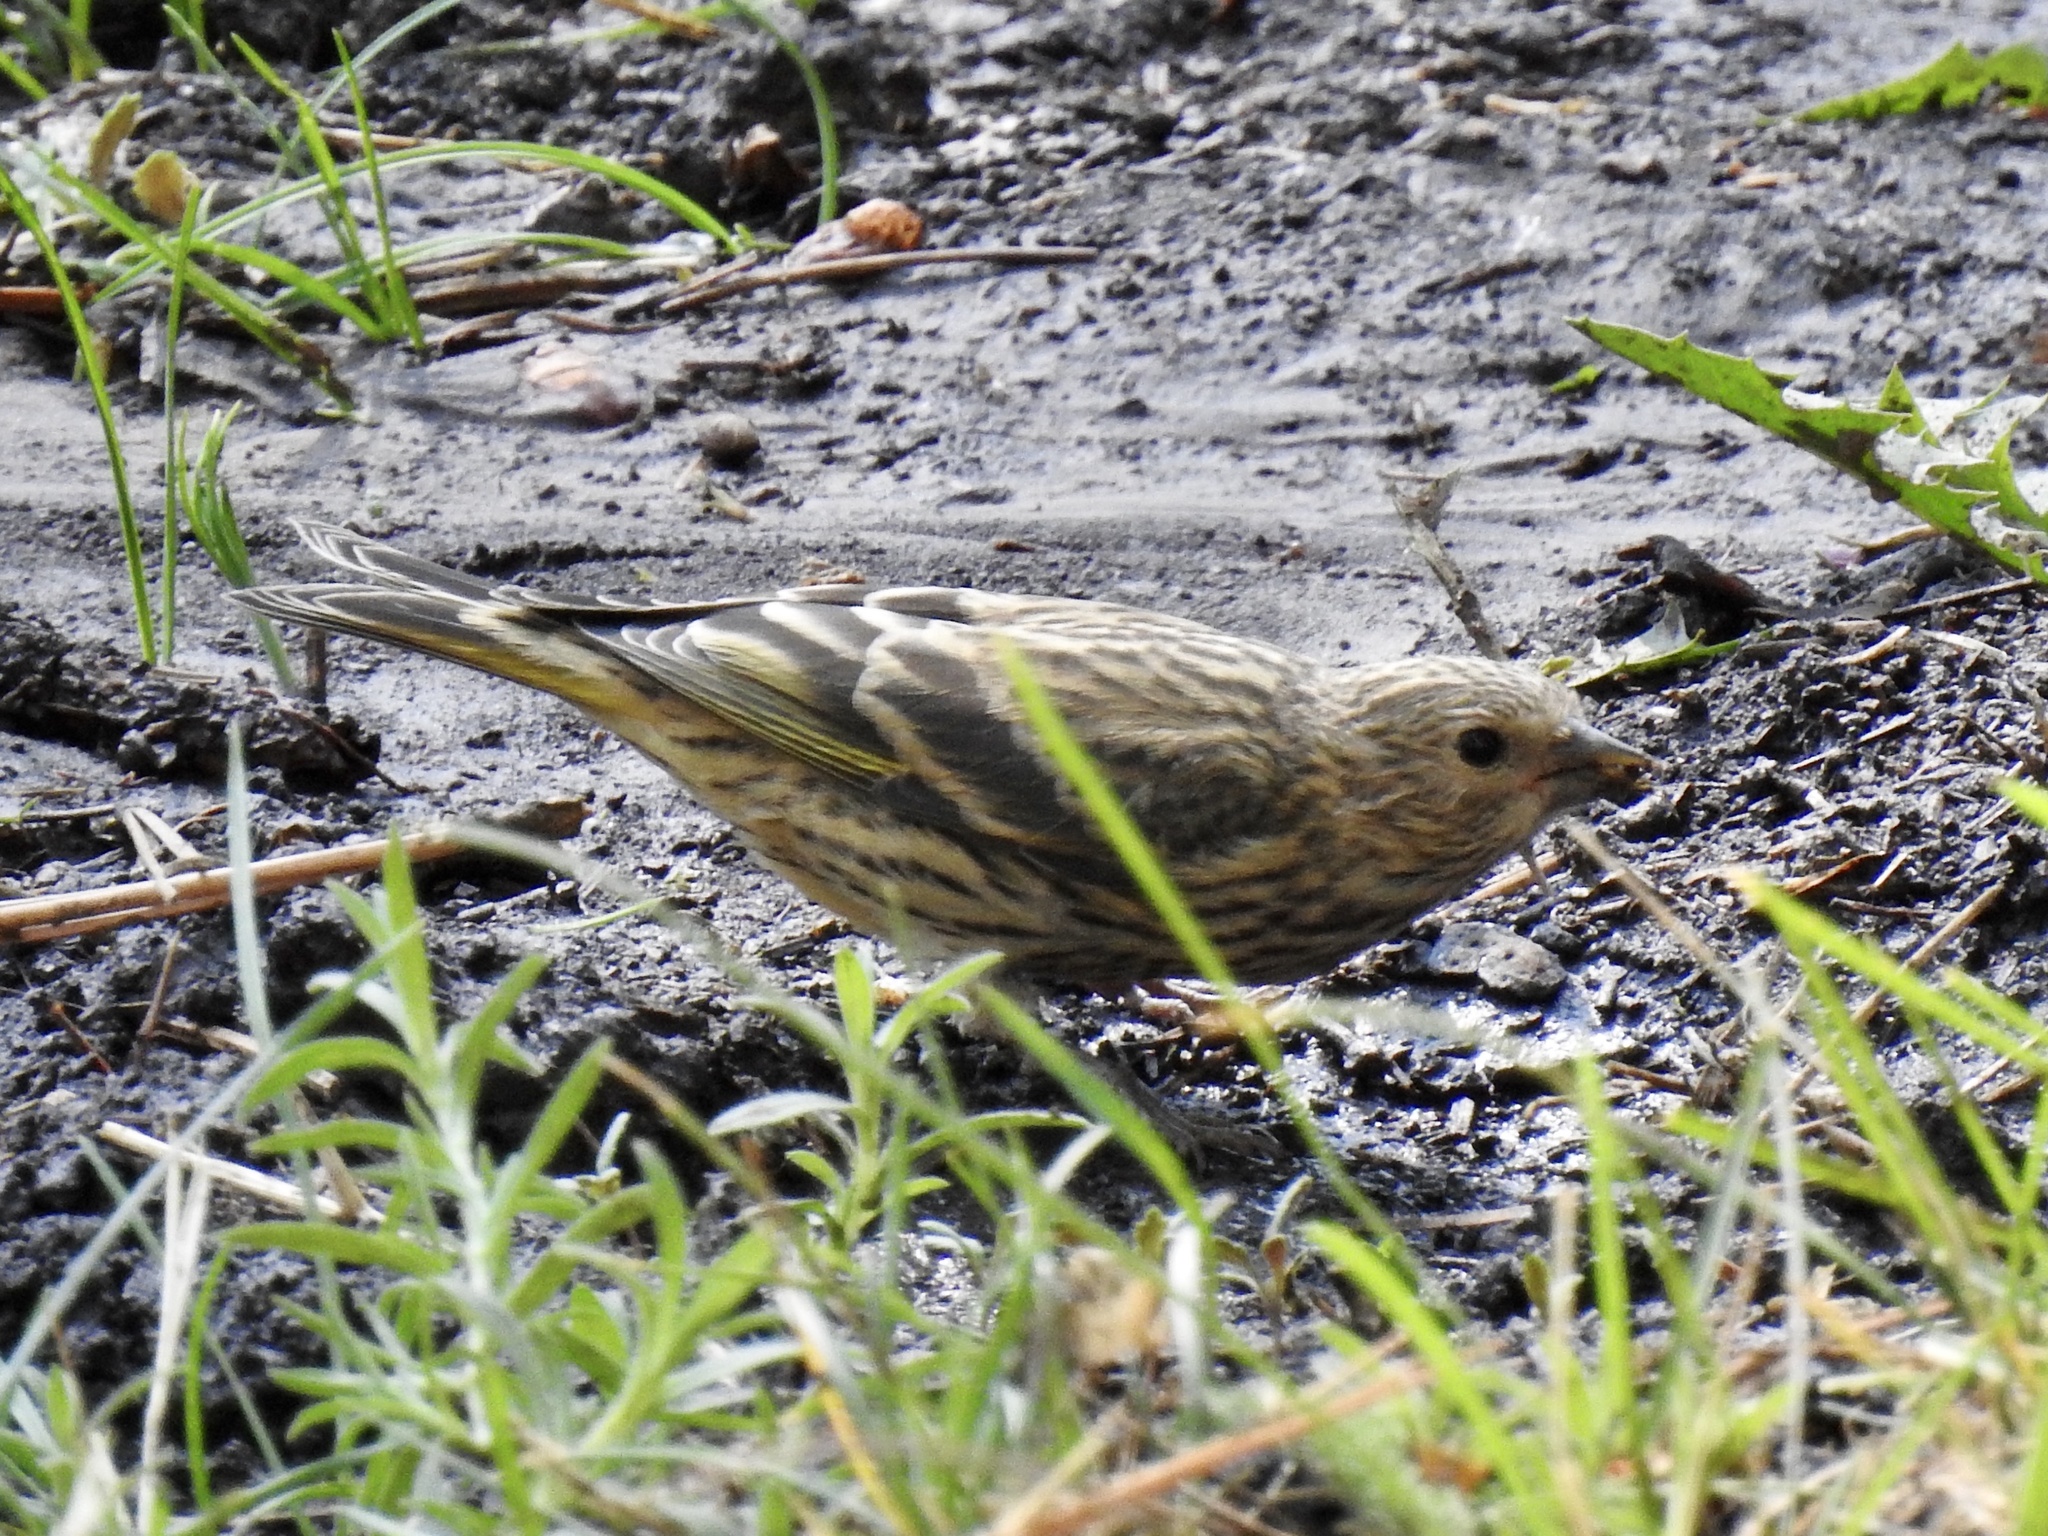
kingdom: Animalia
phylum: Chordata
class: Aves
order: Passeriformes
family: Fringillidae
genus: Spinus
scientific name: Spinus pinus
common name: Pine siskin
